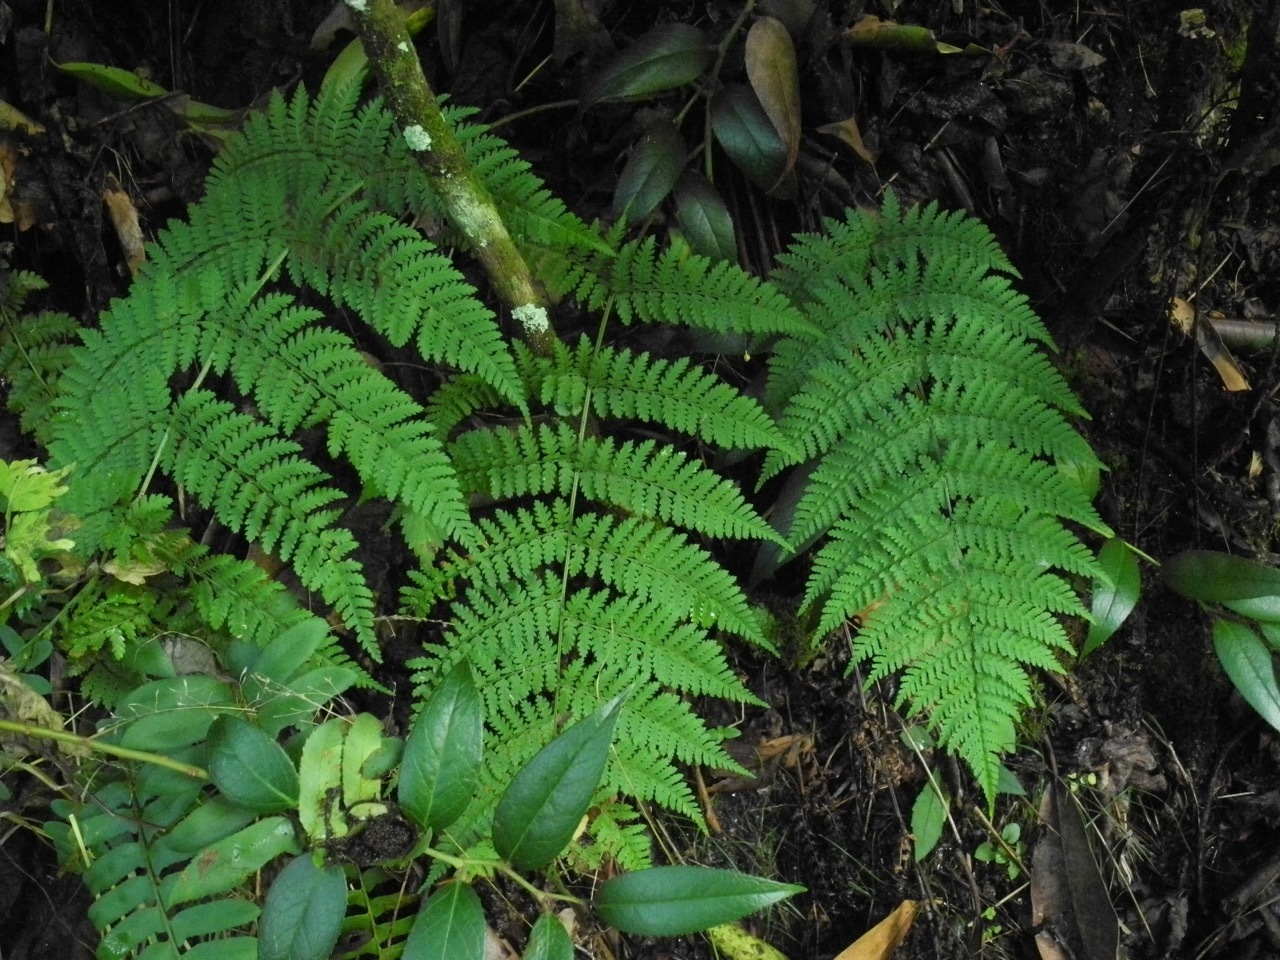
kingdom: Plantae
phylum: Tracheophyta
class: Polypodiopsida
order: Polypodiales
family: Dryopteridaceae
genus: Dryopteris
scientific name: Dryopteris intermedia
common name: Evergreen wood fern
